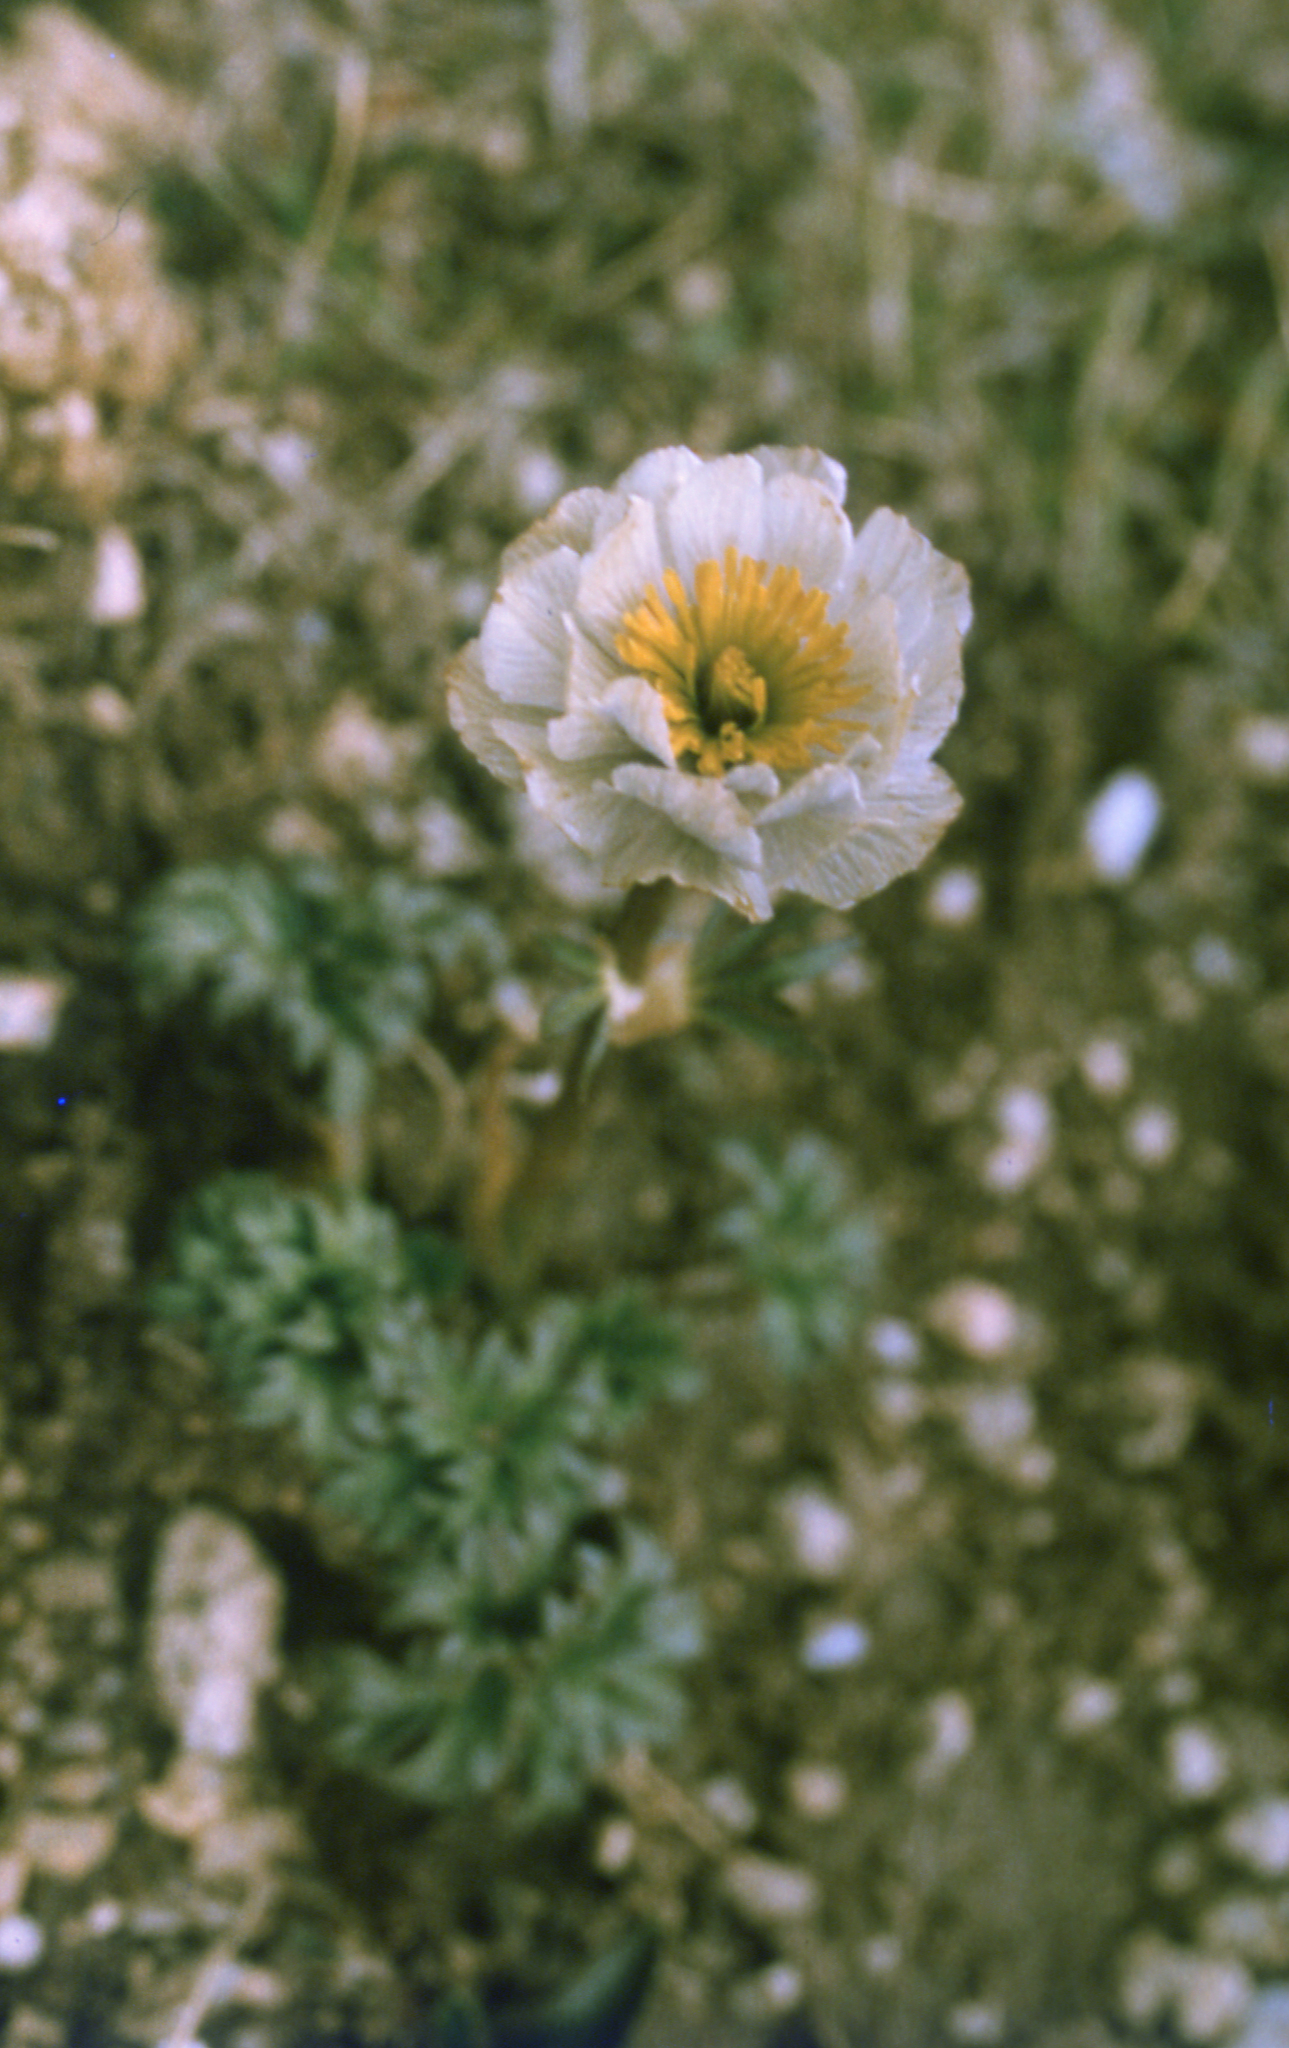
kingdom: Plantae
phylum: Tracheophyta
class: Magnoliopsida
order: Ranunculales
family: Ranunculaceae
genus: Trollius
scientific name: Trollius lilacinus
